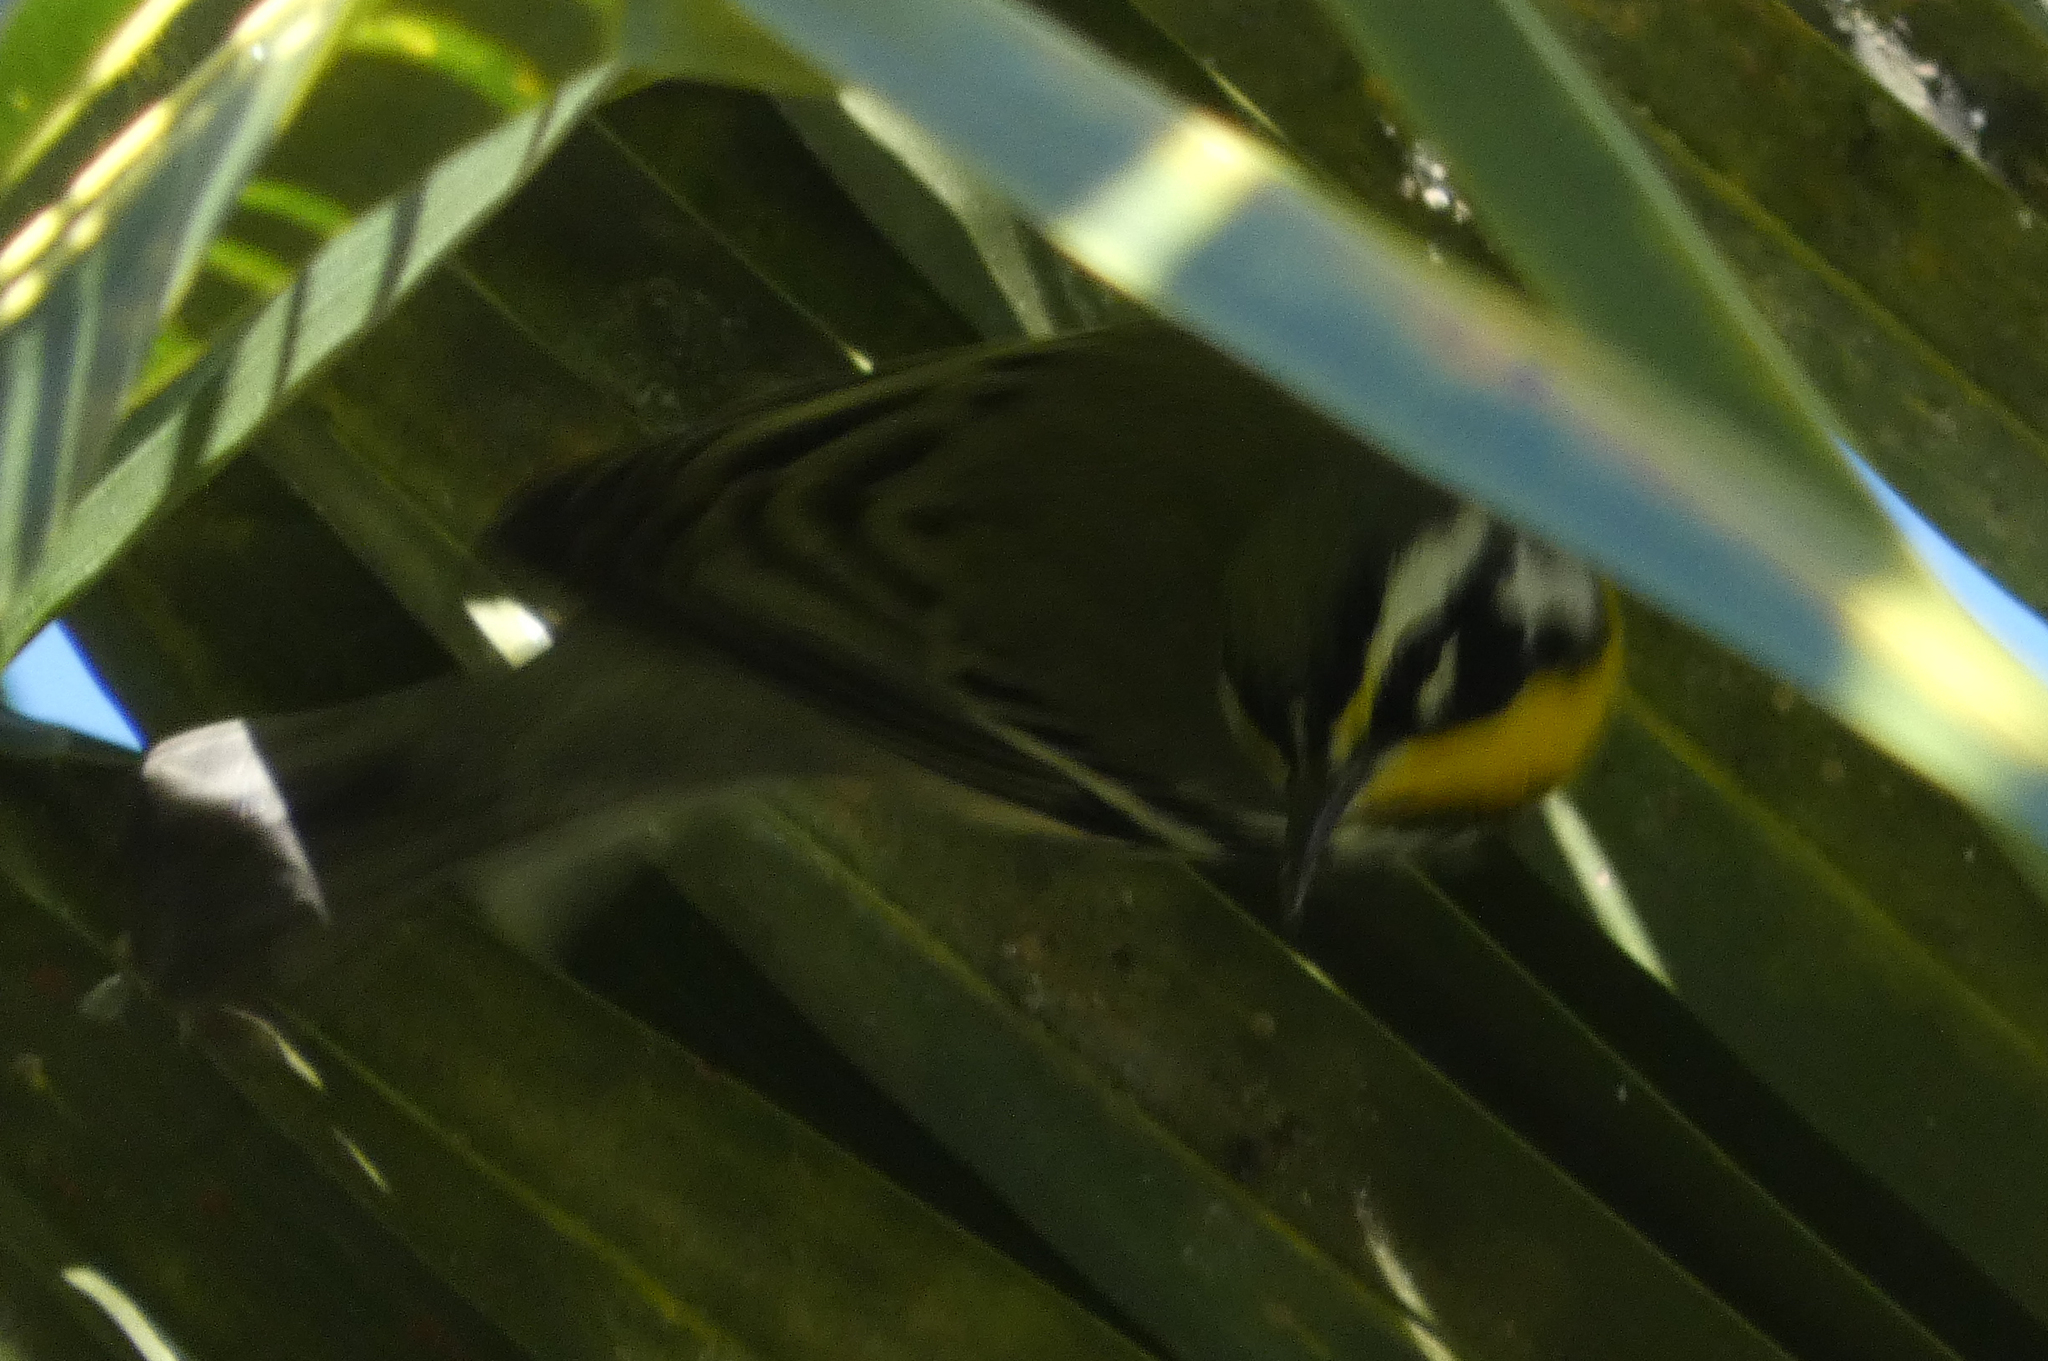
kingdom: Animalia
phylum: Chordata
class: Aves
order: Passeriformes
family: Parulidae
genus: Setophaga
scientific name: Setophaga dominica
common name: Yellow-throated warbler
